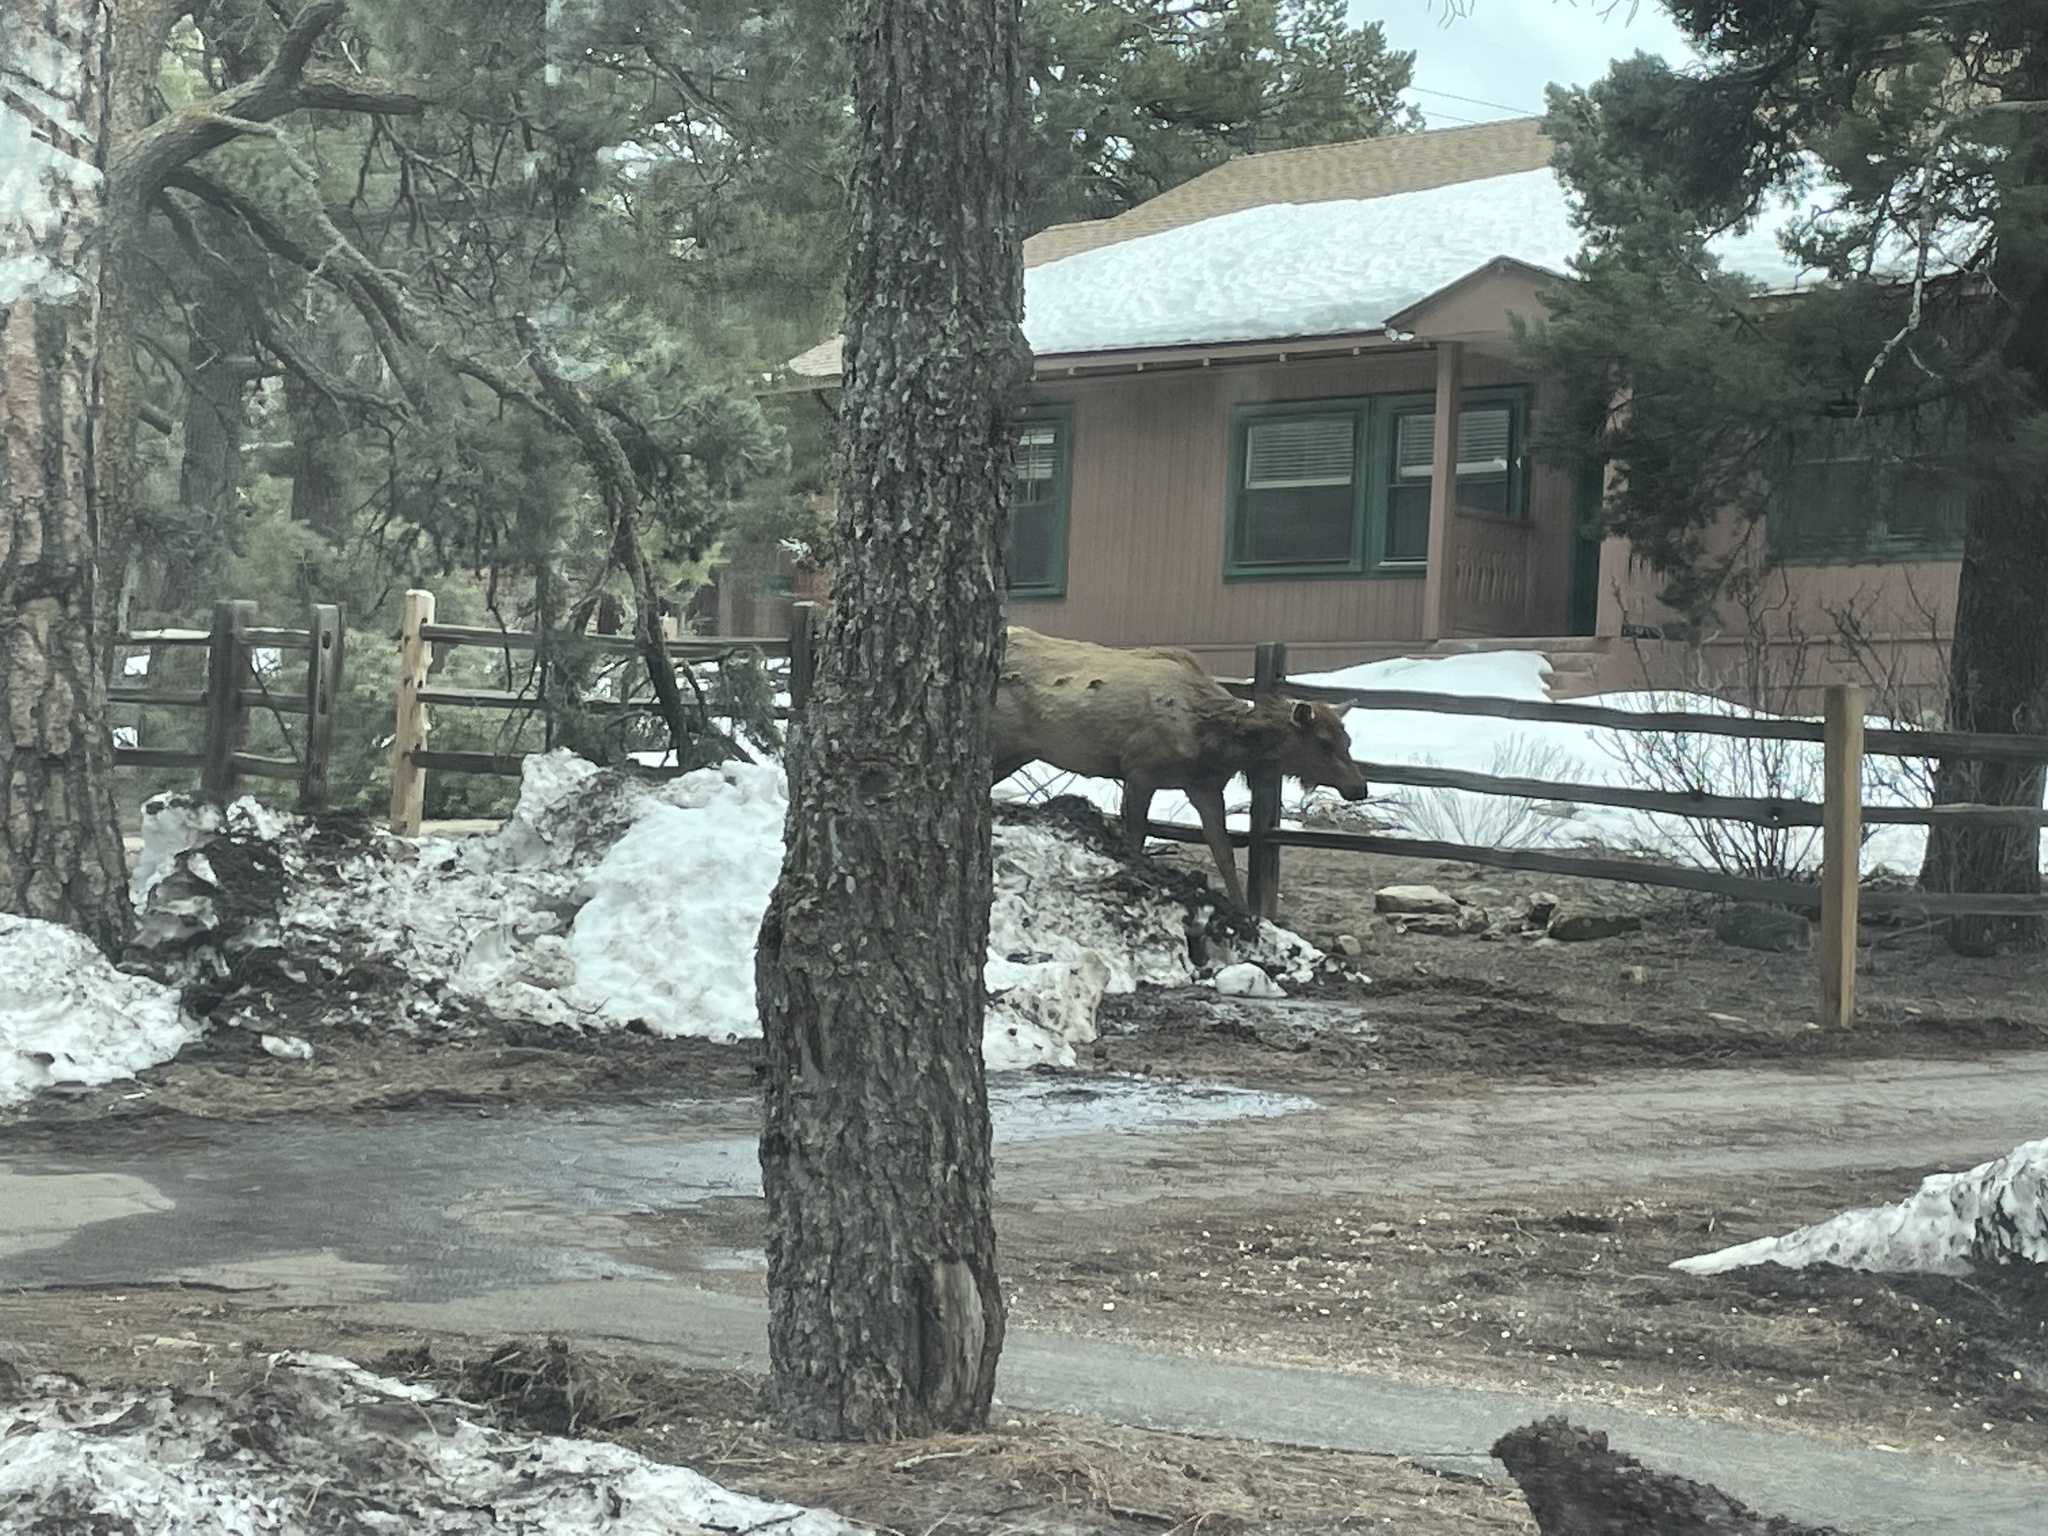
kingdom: Animalia
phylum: Chordata
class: Mammalia
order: Artiodactyla
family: Cervidae
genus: Cervus
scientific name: Cervus elaphus
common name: Red deer
